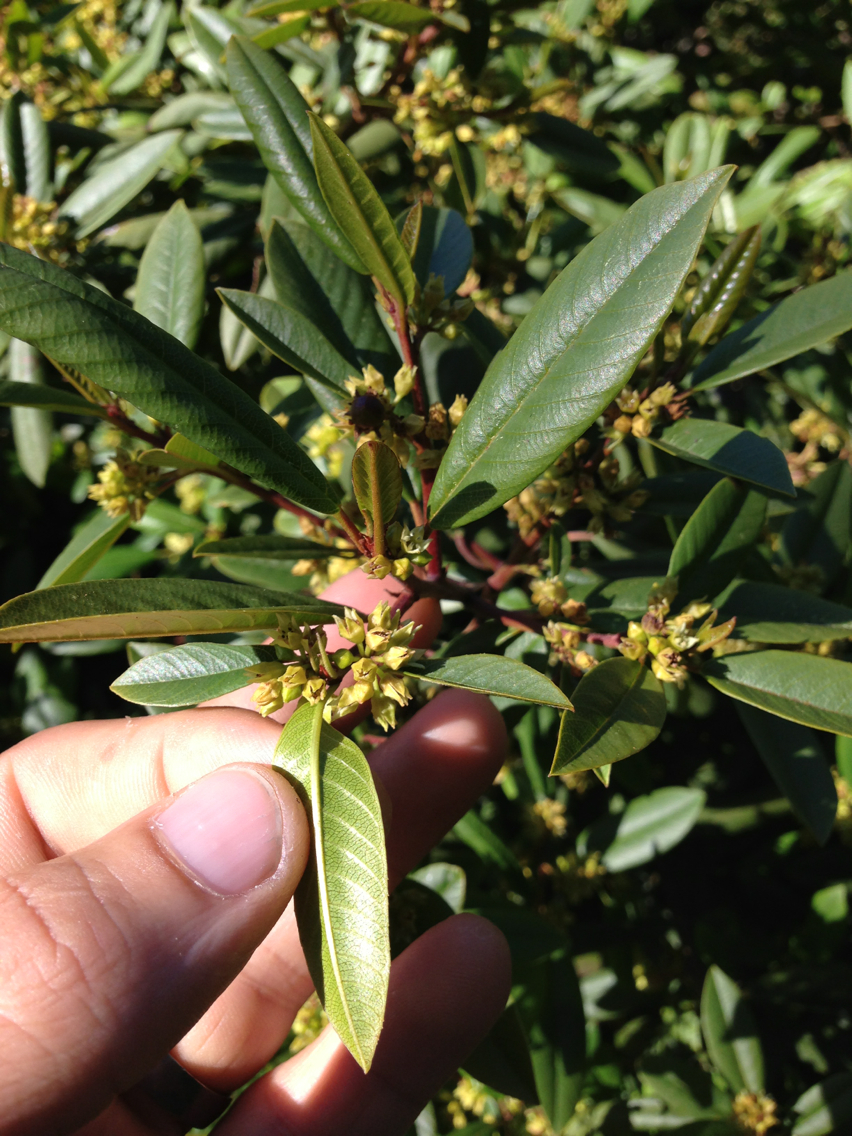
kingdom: Plantae
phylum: Tracheophyta
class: Magnoliopsida
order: Rosales
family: Rhamnaceae
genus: Frangula
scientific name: Frangula californica
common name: California buckthorn
